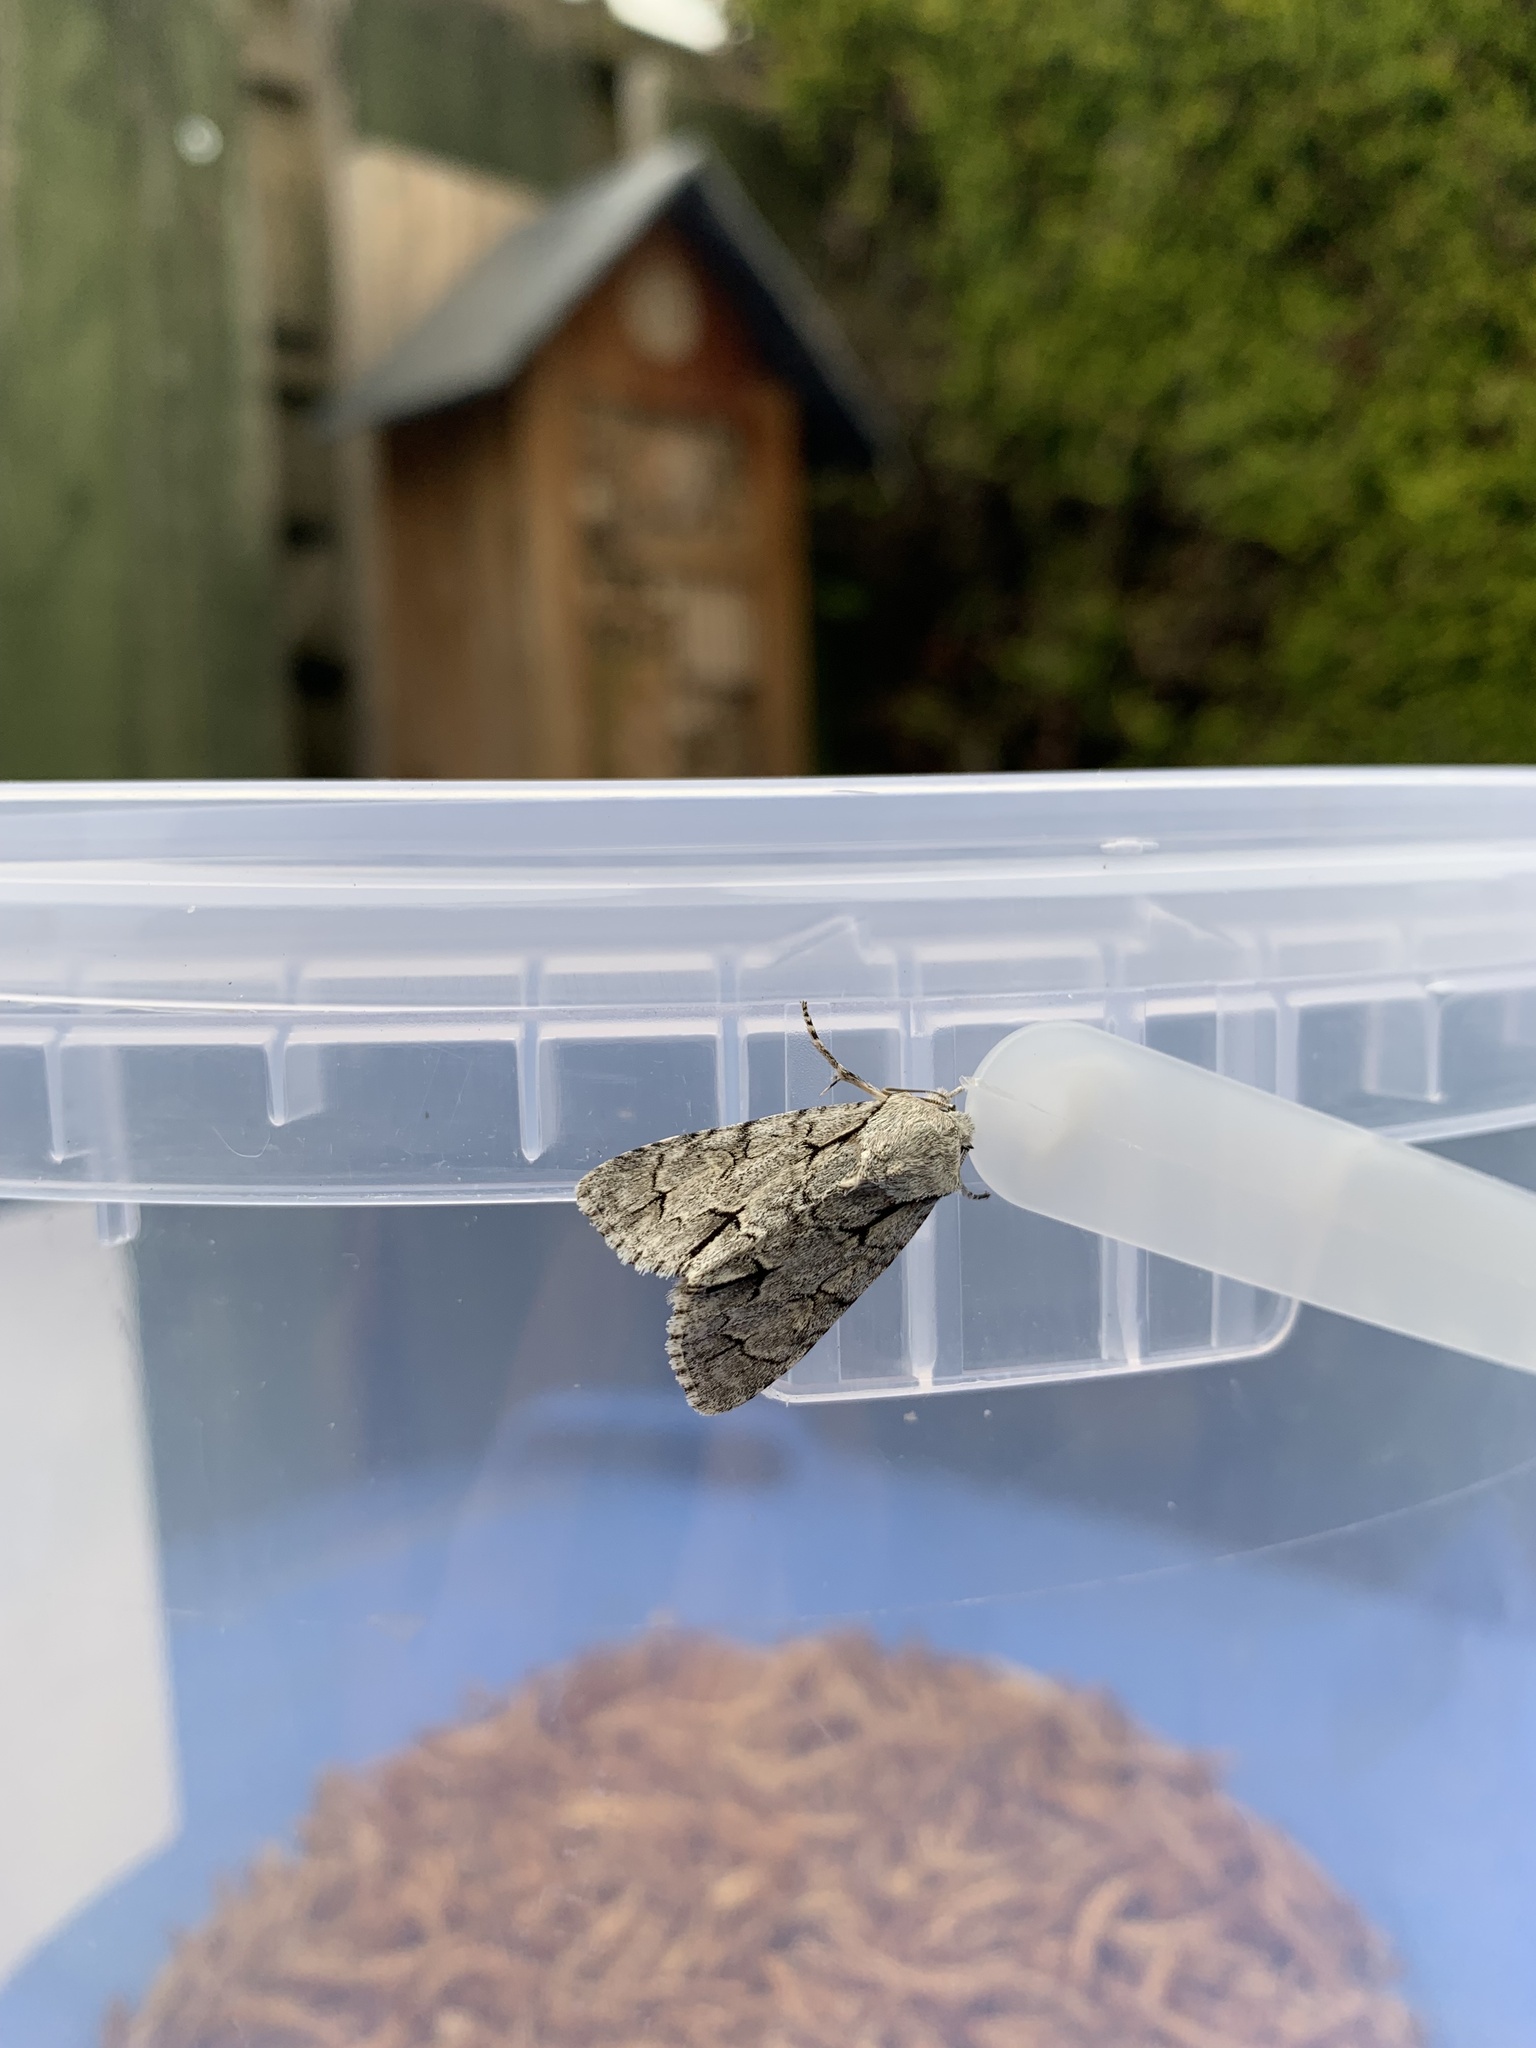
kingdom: Animalia
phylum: Arthropoda
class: Insecta
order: Lepidoptera
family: Noctuidae
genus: Acronicta
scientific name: Acronicta
